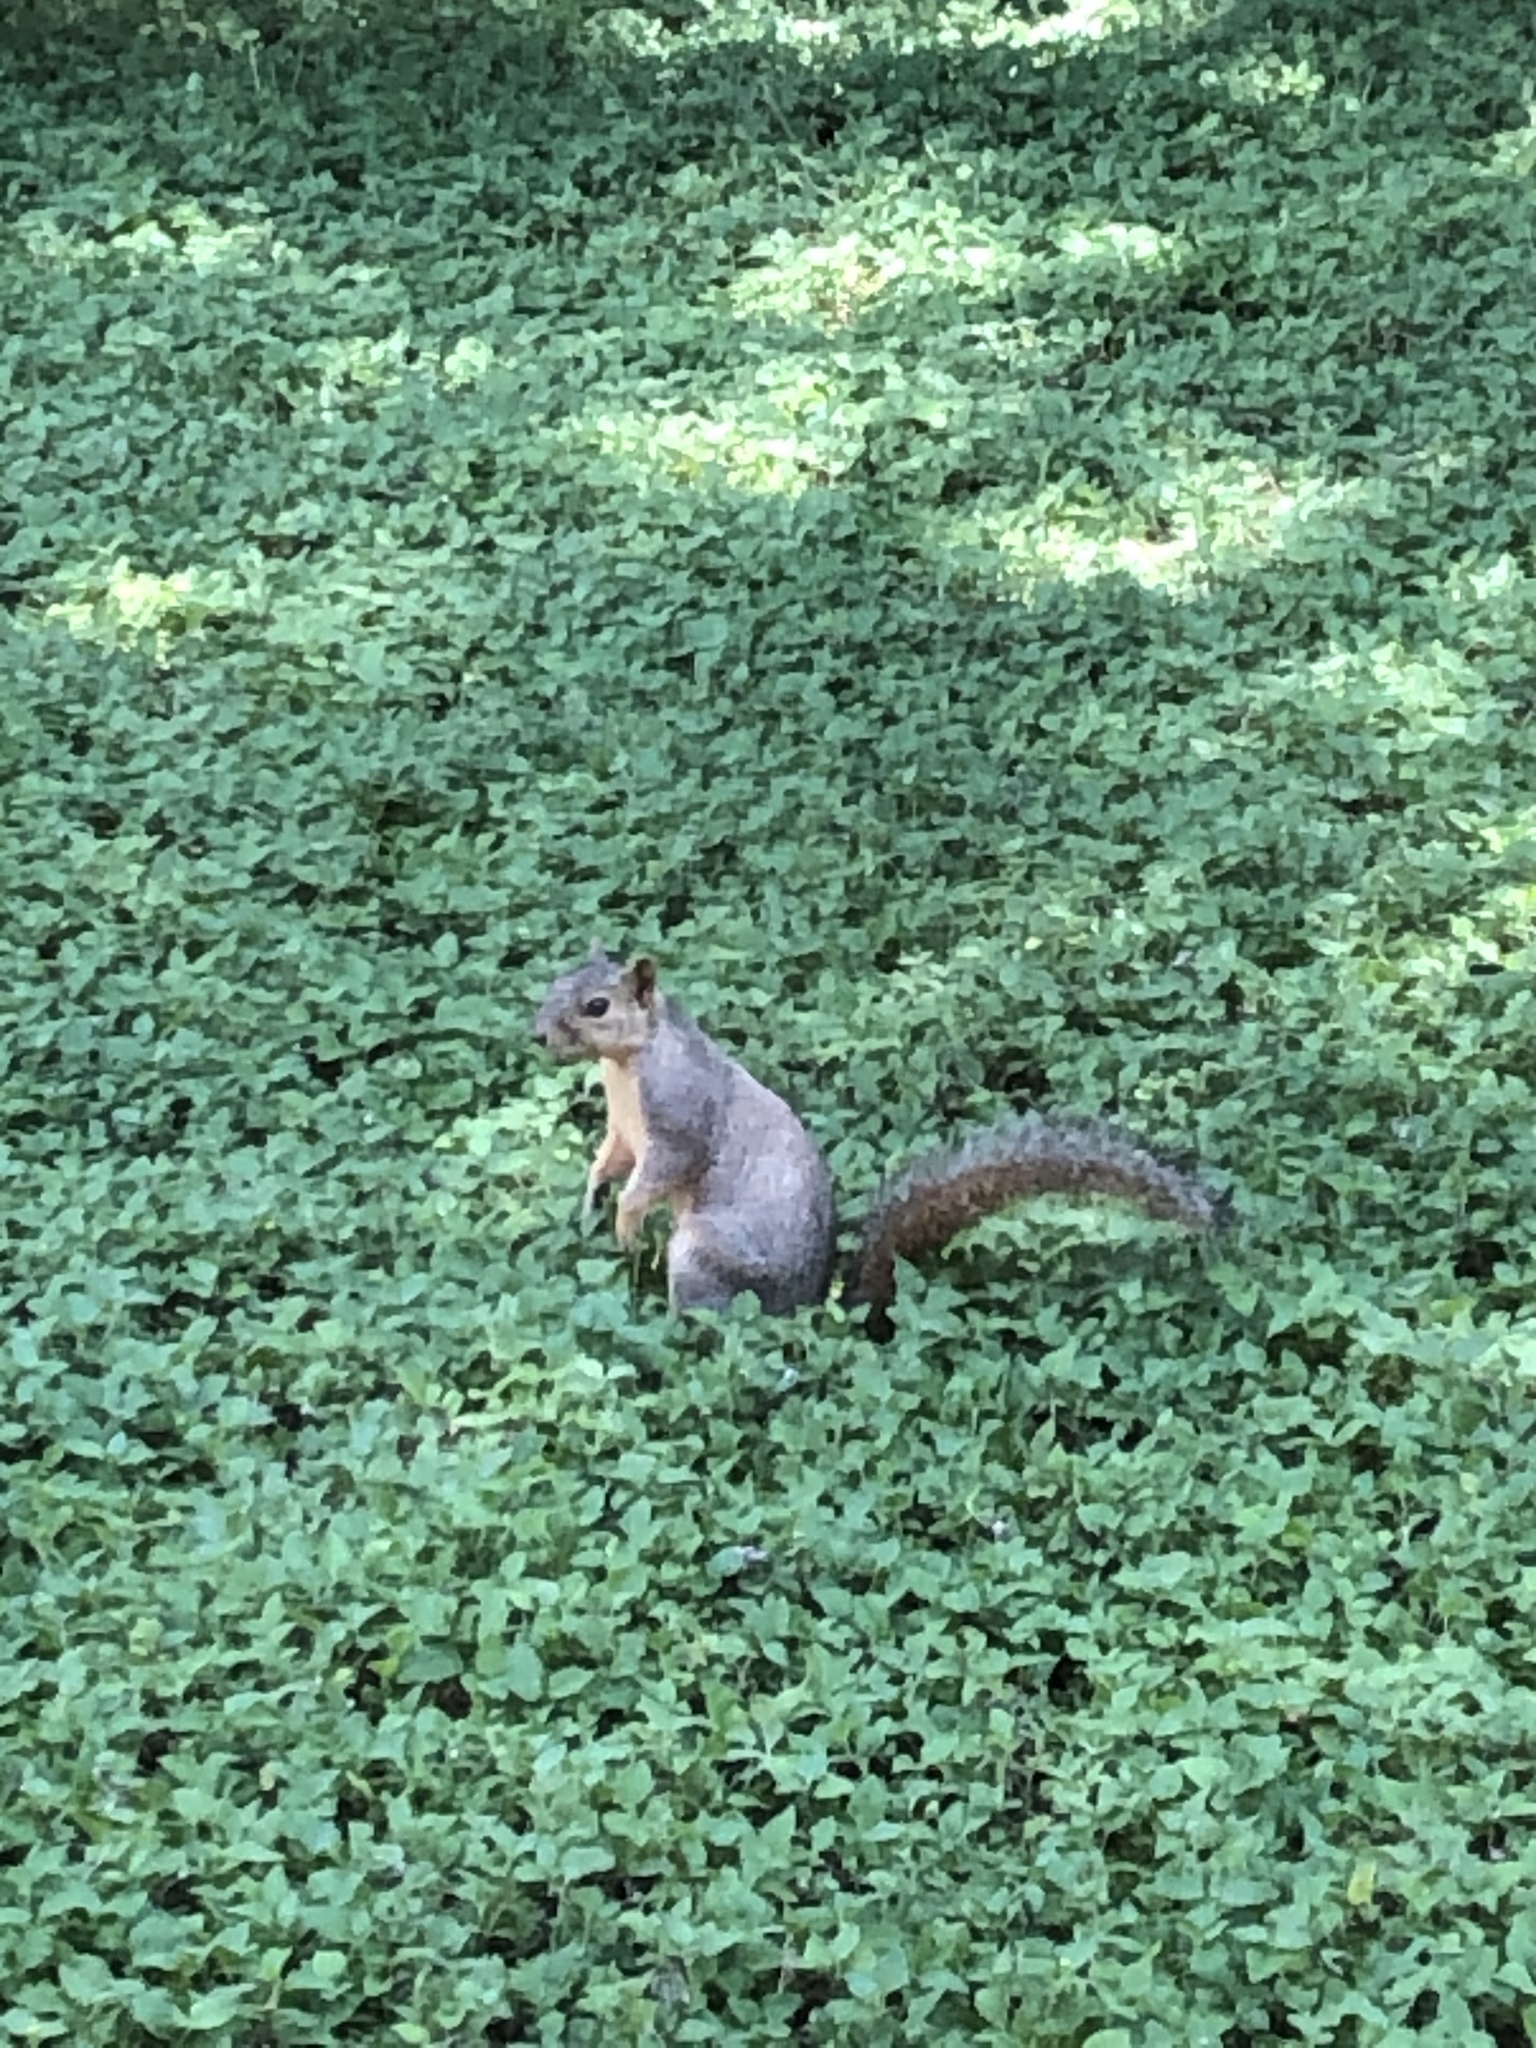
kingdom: Animalia
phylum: Chordata
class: Mammalia
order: Rodentia
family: Sciuridae
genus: Sciurus
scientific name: Sciurus niger
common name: Fox squirrel
